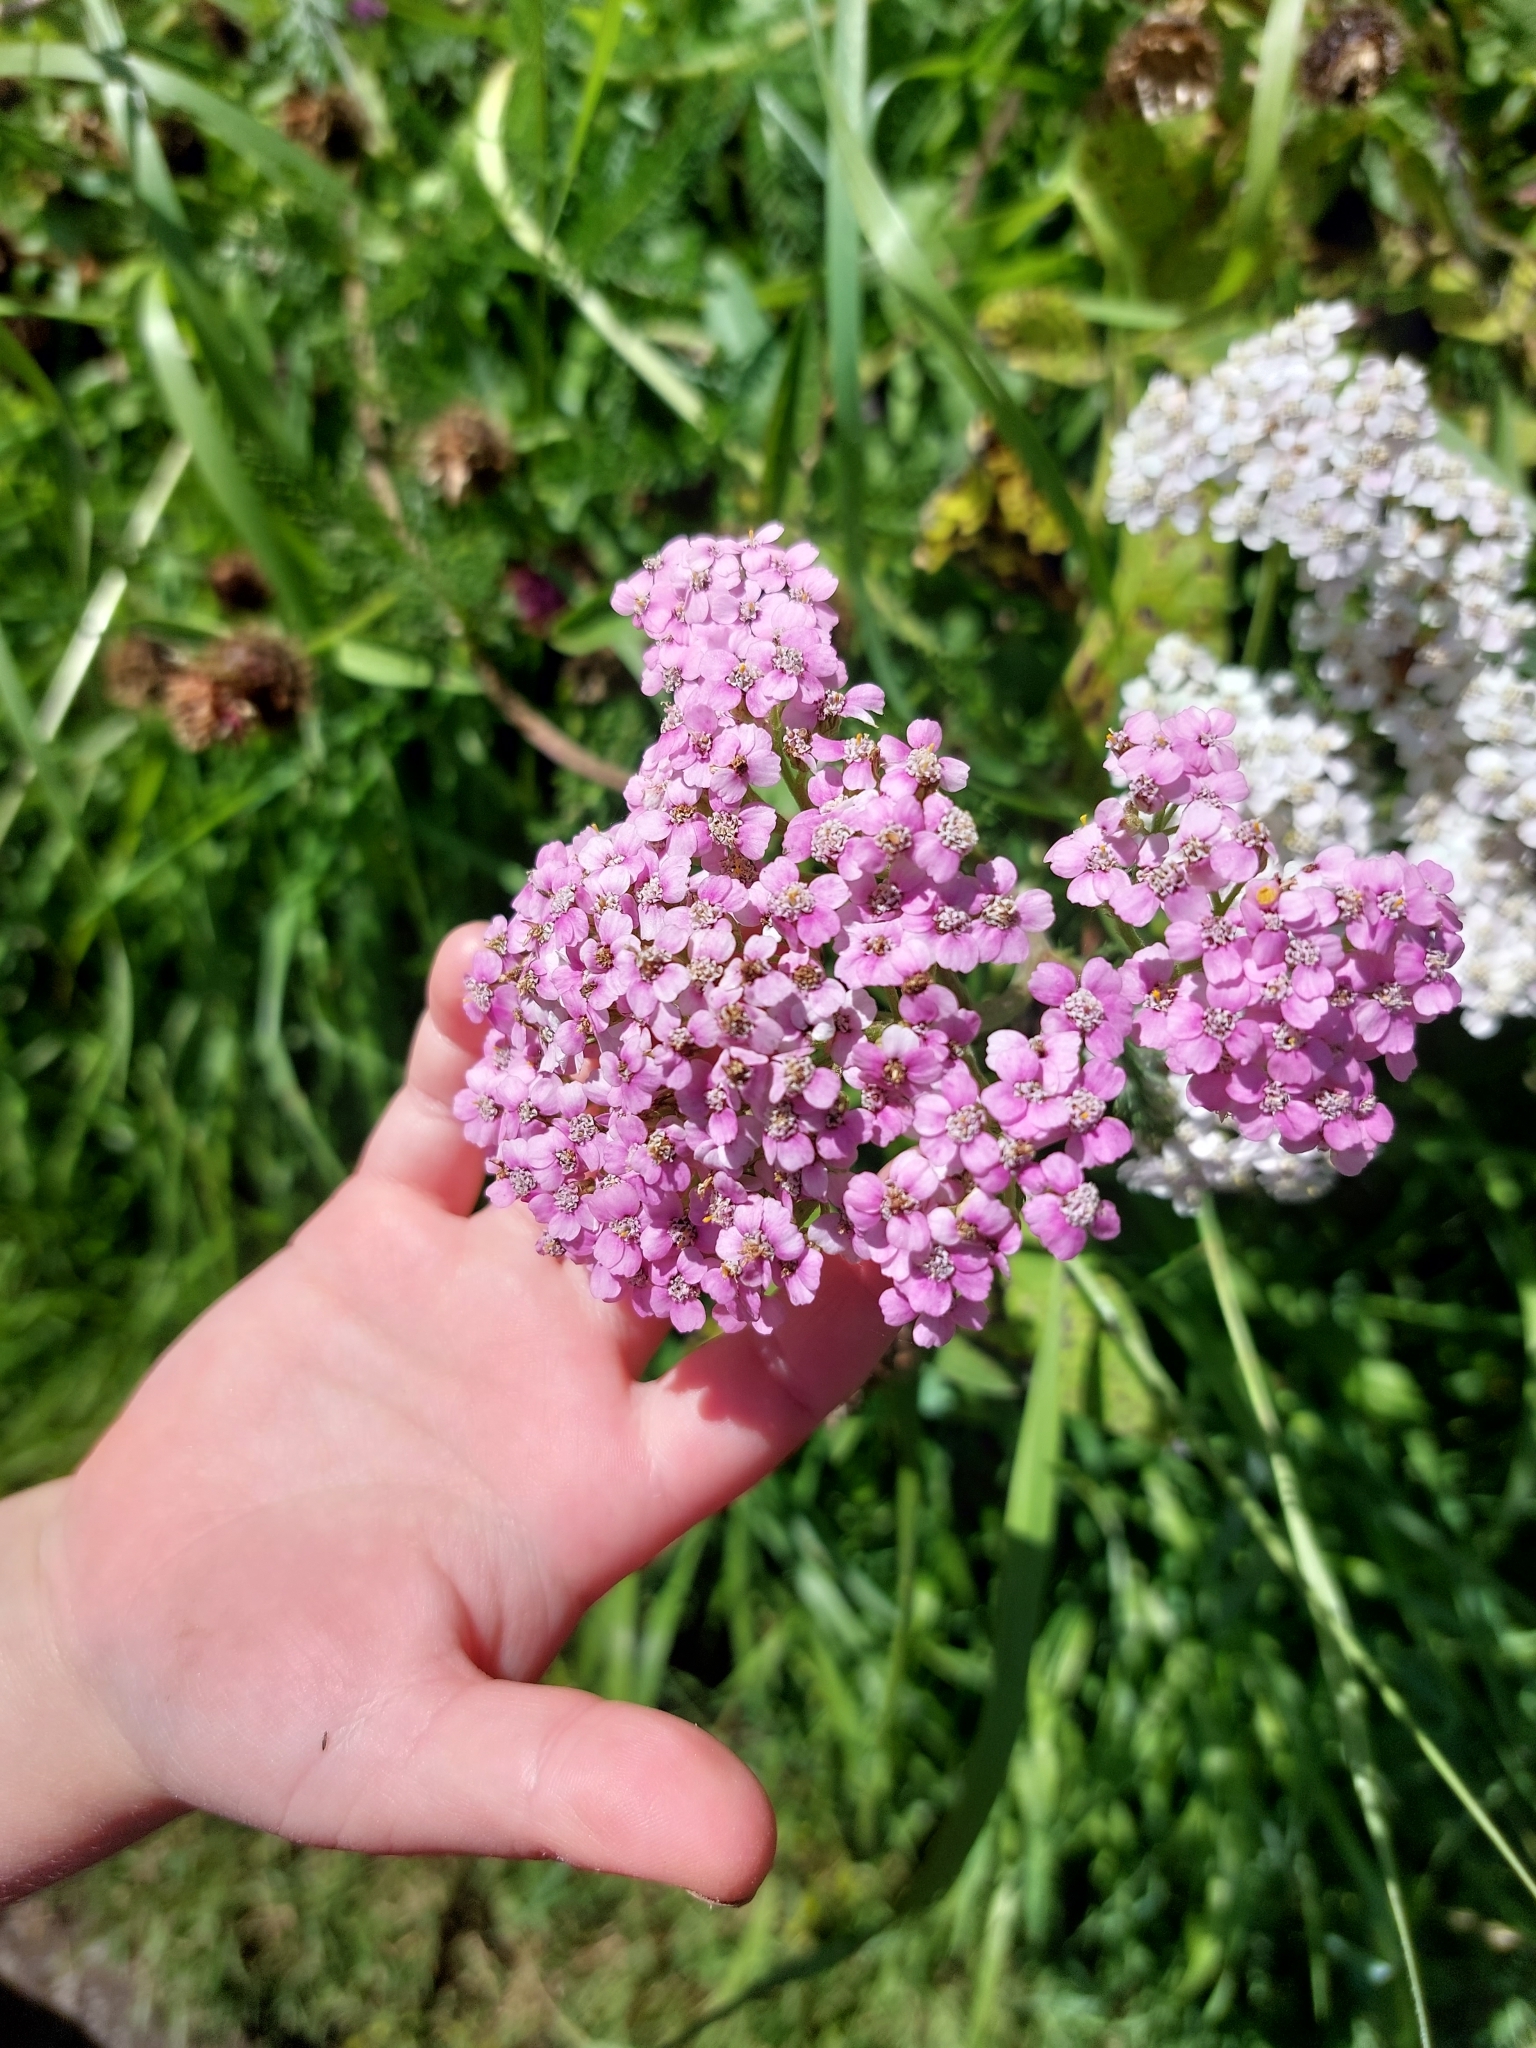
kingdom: Plantae
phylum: Tracheophyta
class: Magnoliopsida
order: Asterales
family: Asteraceae
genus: Achillea
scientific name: Achillea millefolium
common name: Yarrow
